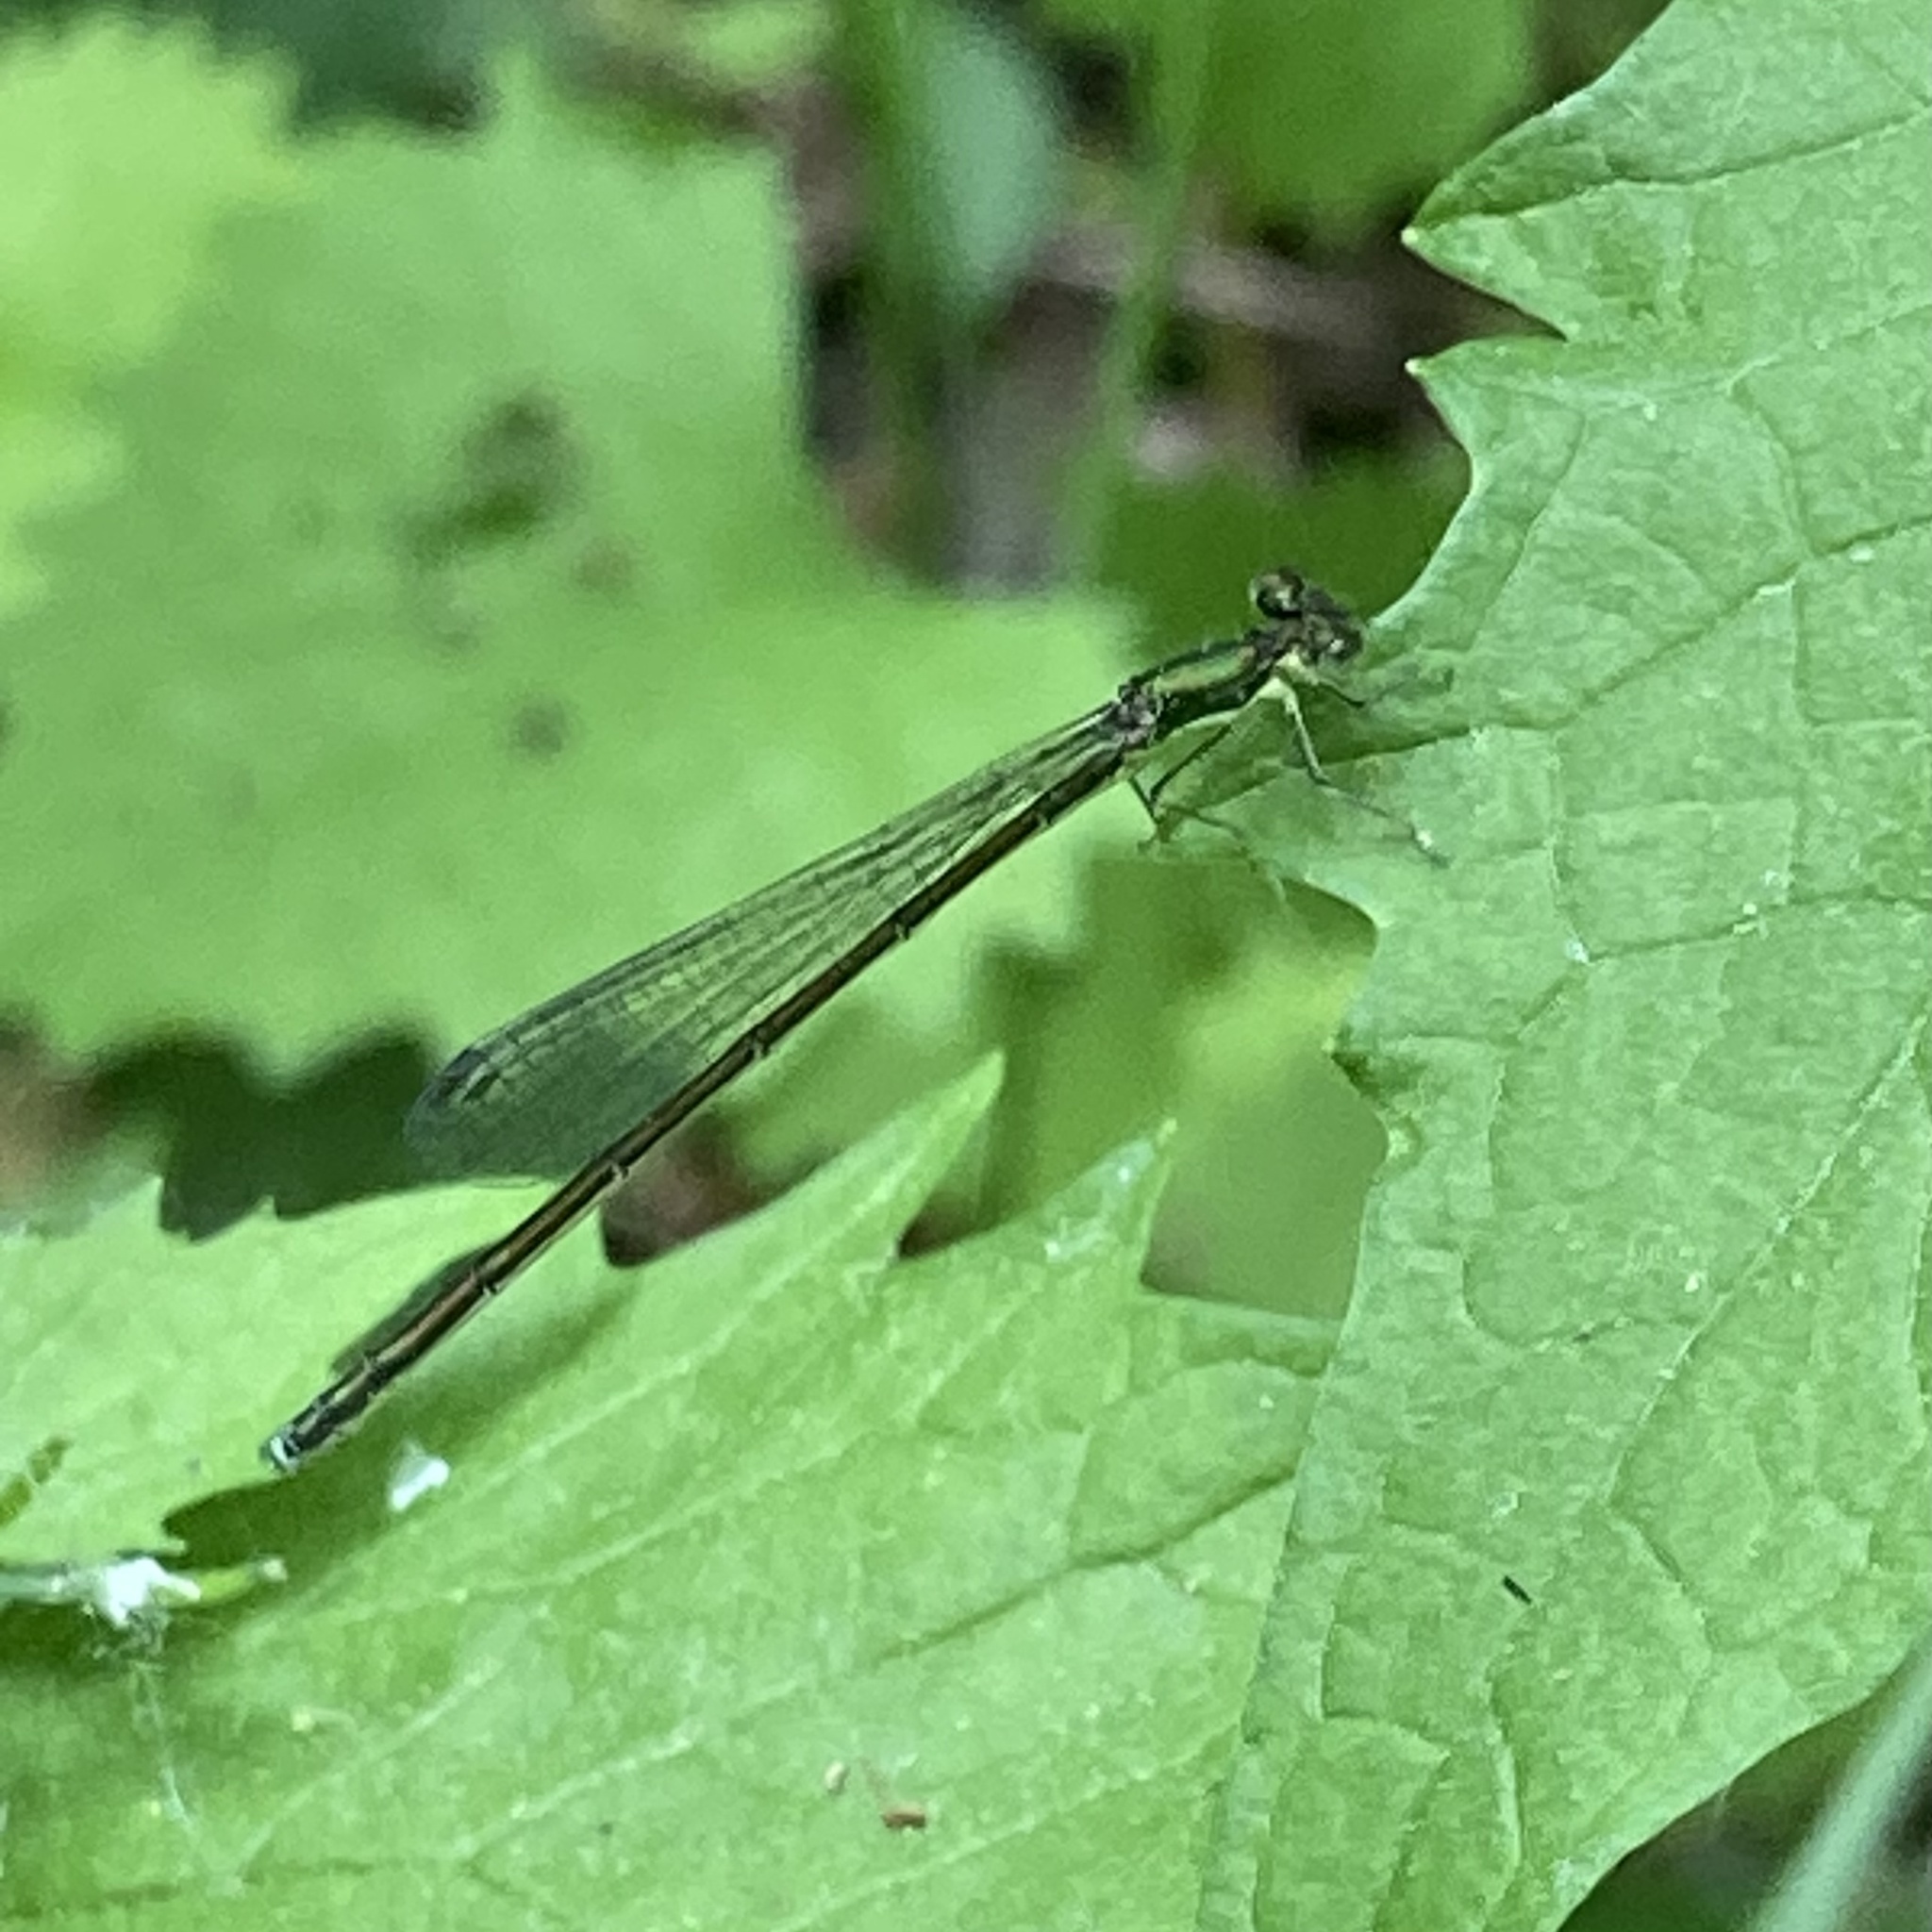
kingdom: Animalia
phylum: Arthropoda
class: Insecta
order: Odonata
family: Coenagrionidae
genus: Nehalennia
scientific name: Nehalennia irene
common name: Sedge sprite
